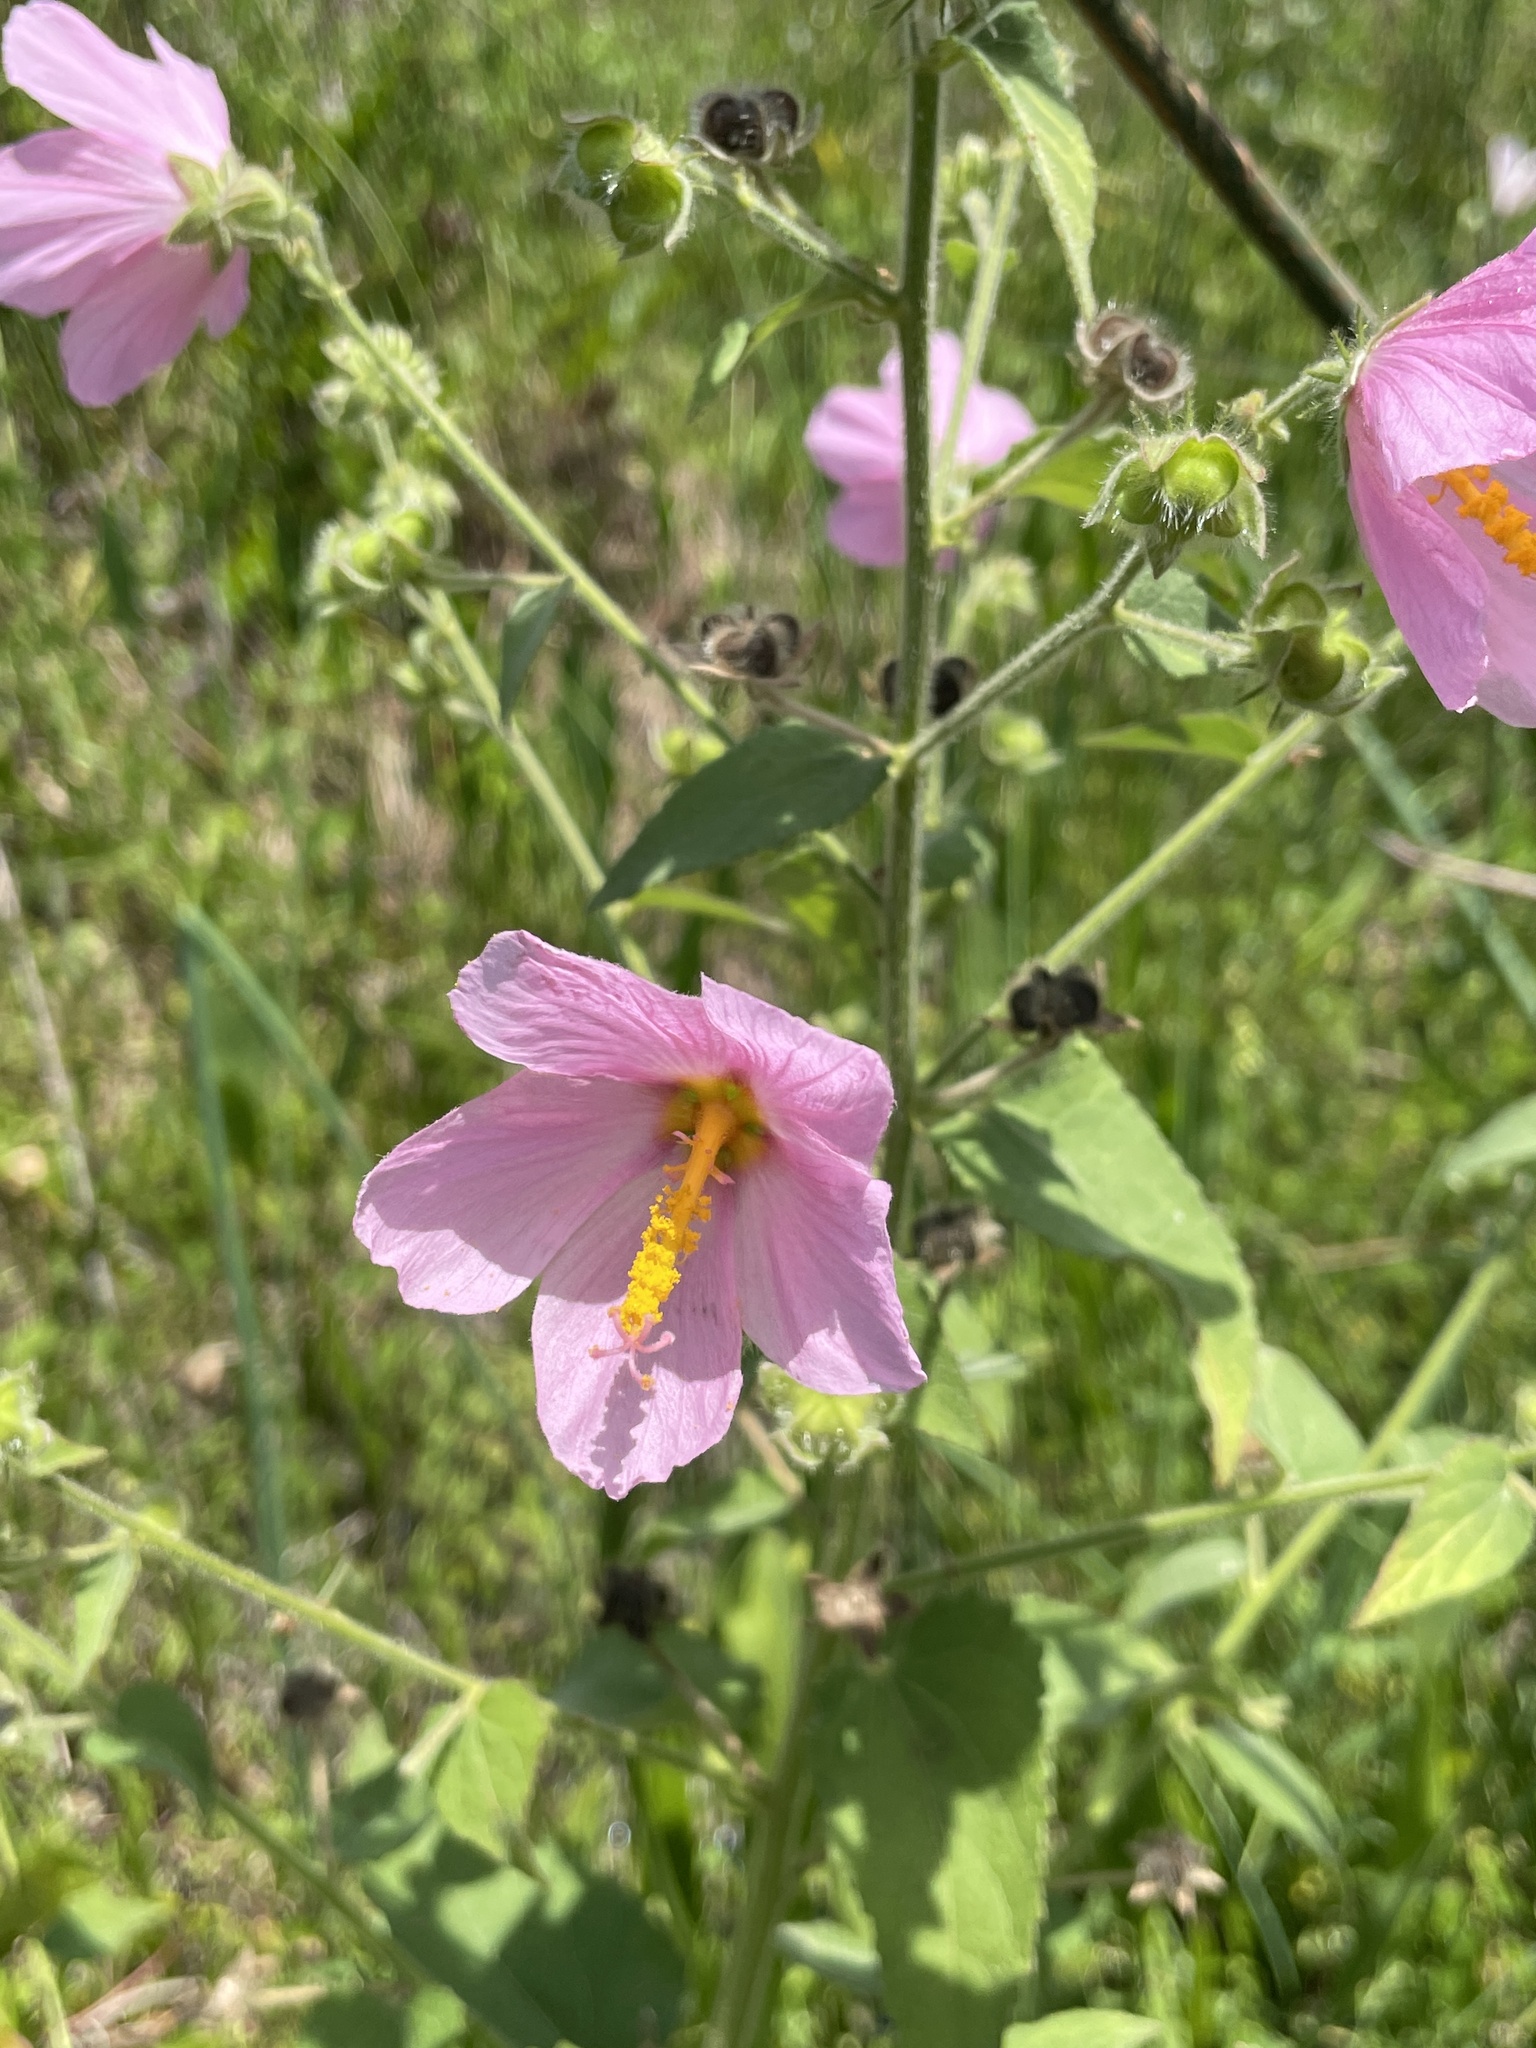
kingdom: Plantae
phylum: Tracheophyta
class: Magnoliopsida
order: Malvales
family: Malvaceae
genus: Kosteletzkya
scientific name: Kosteletzkya pentacarpos
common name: Virginia saltmarsh mallow
